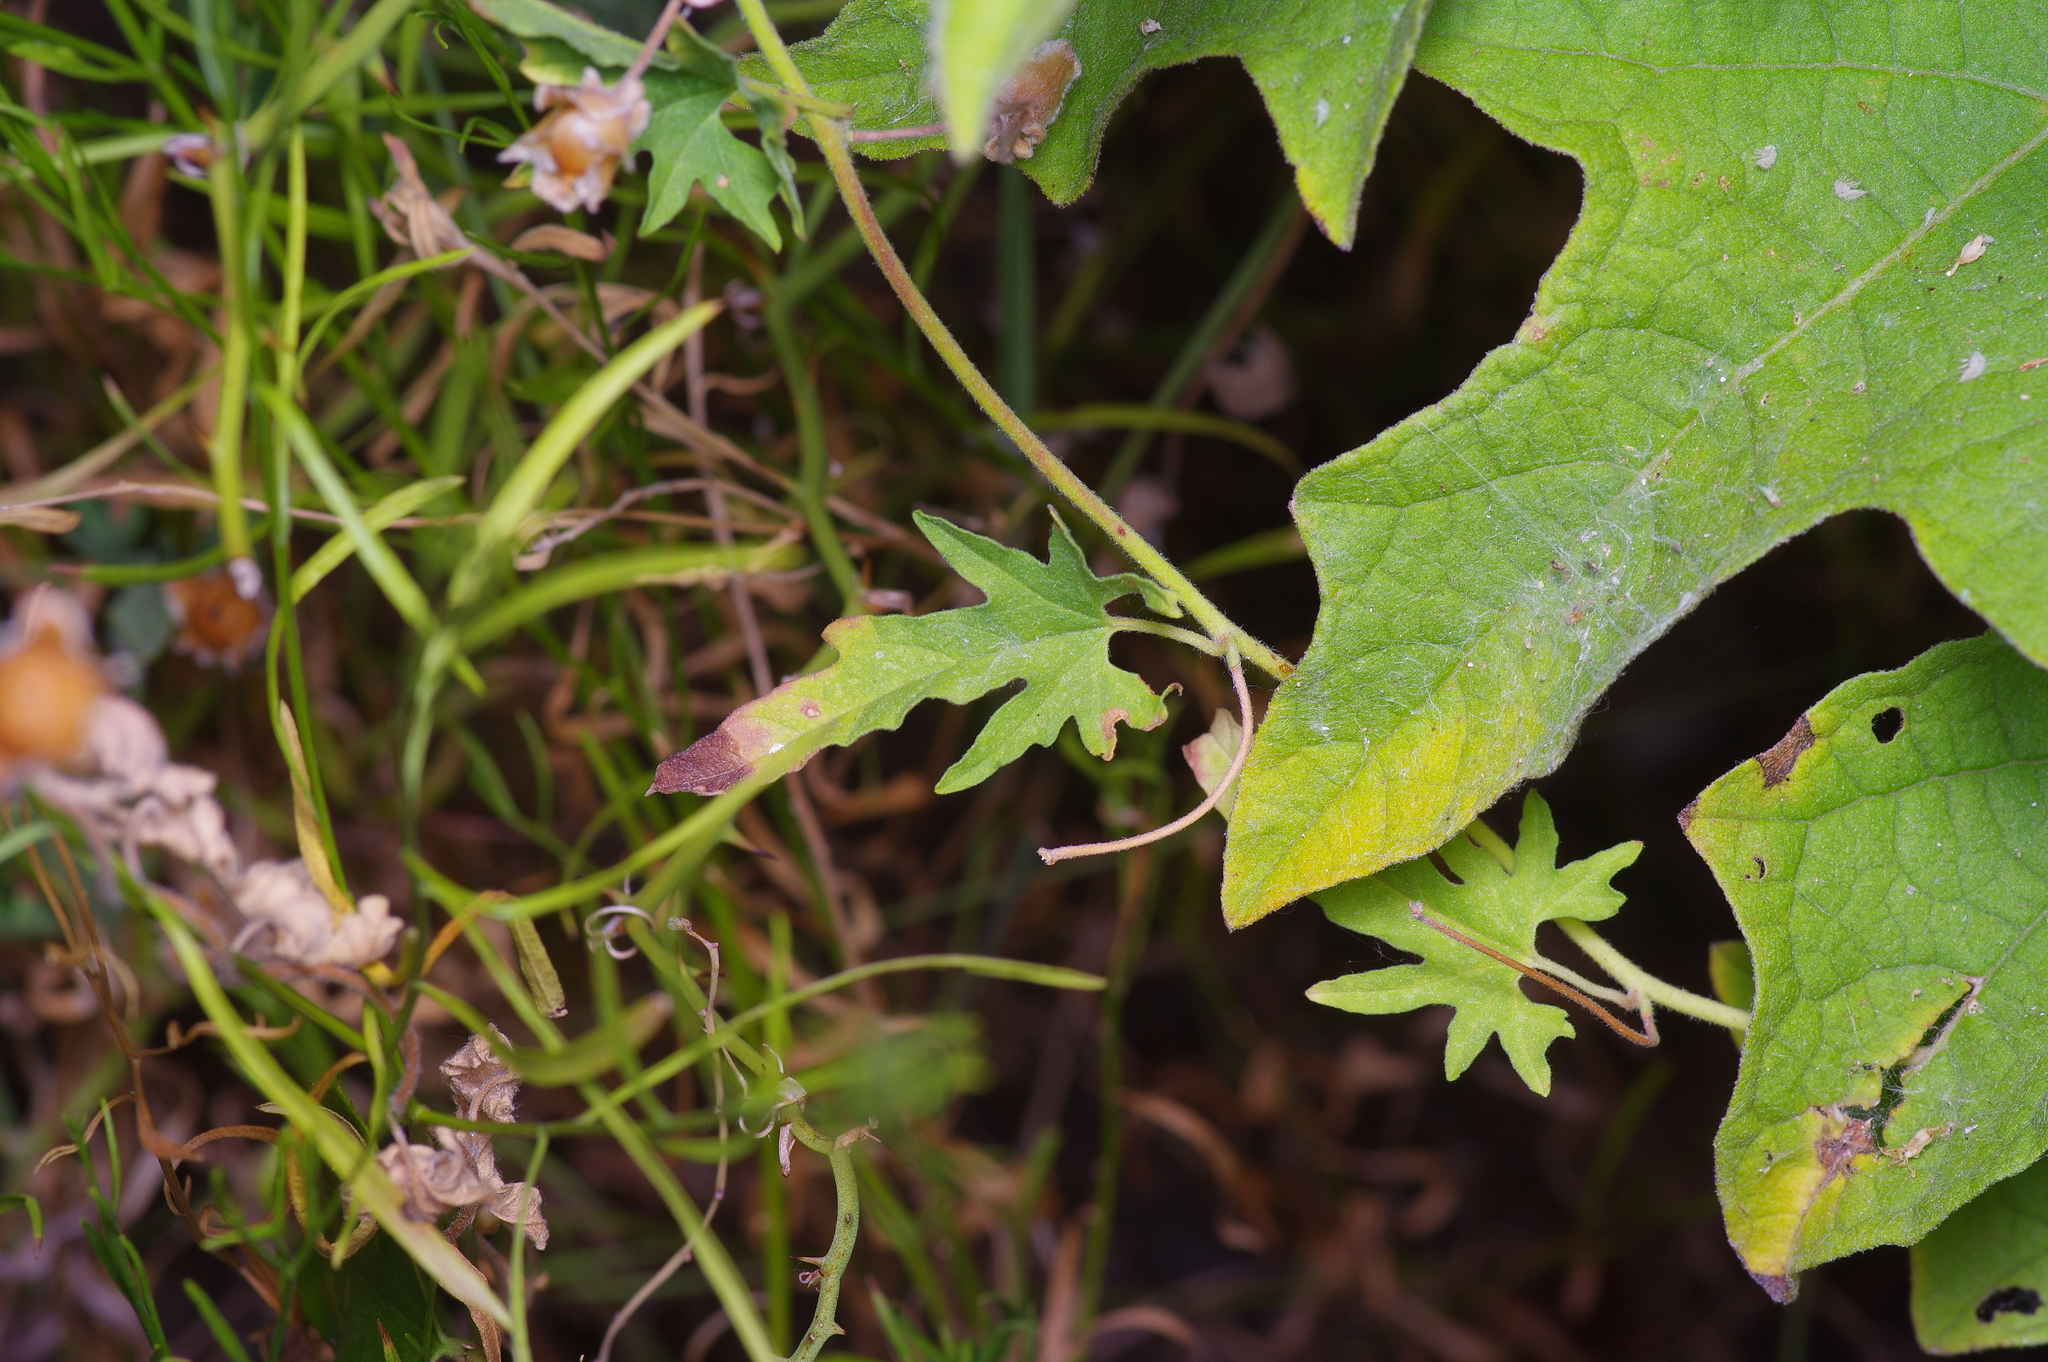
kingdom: Plantae
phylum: Tracheophyta
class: Magnoliopsida
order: Solanales
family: Convolvulaceae
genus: Convolvulus
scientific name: Convolvulus equitans
